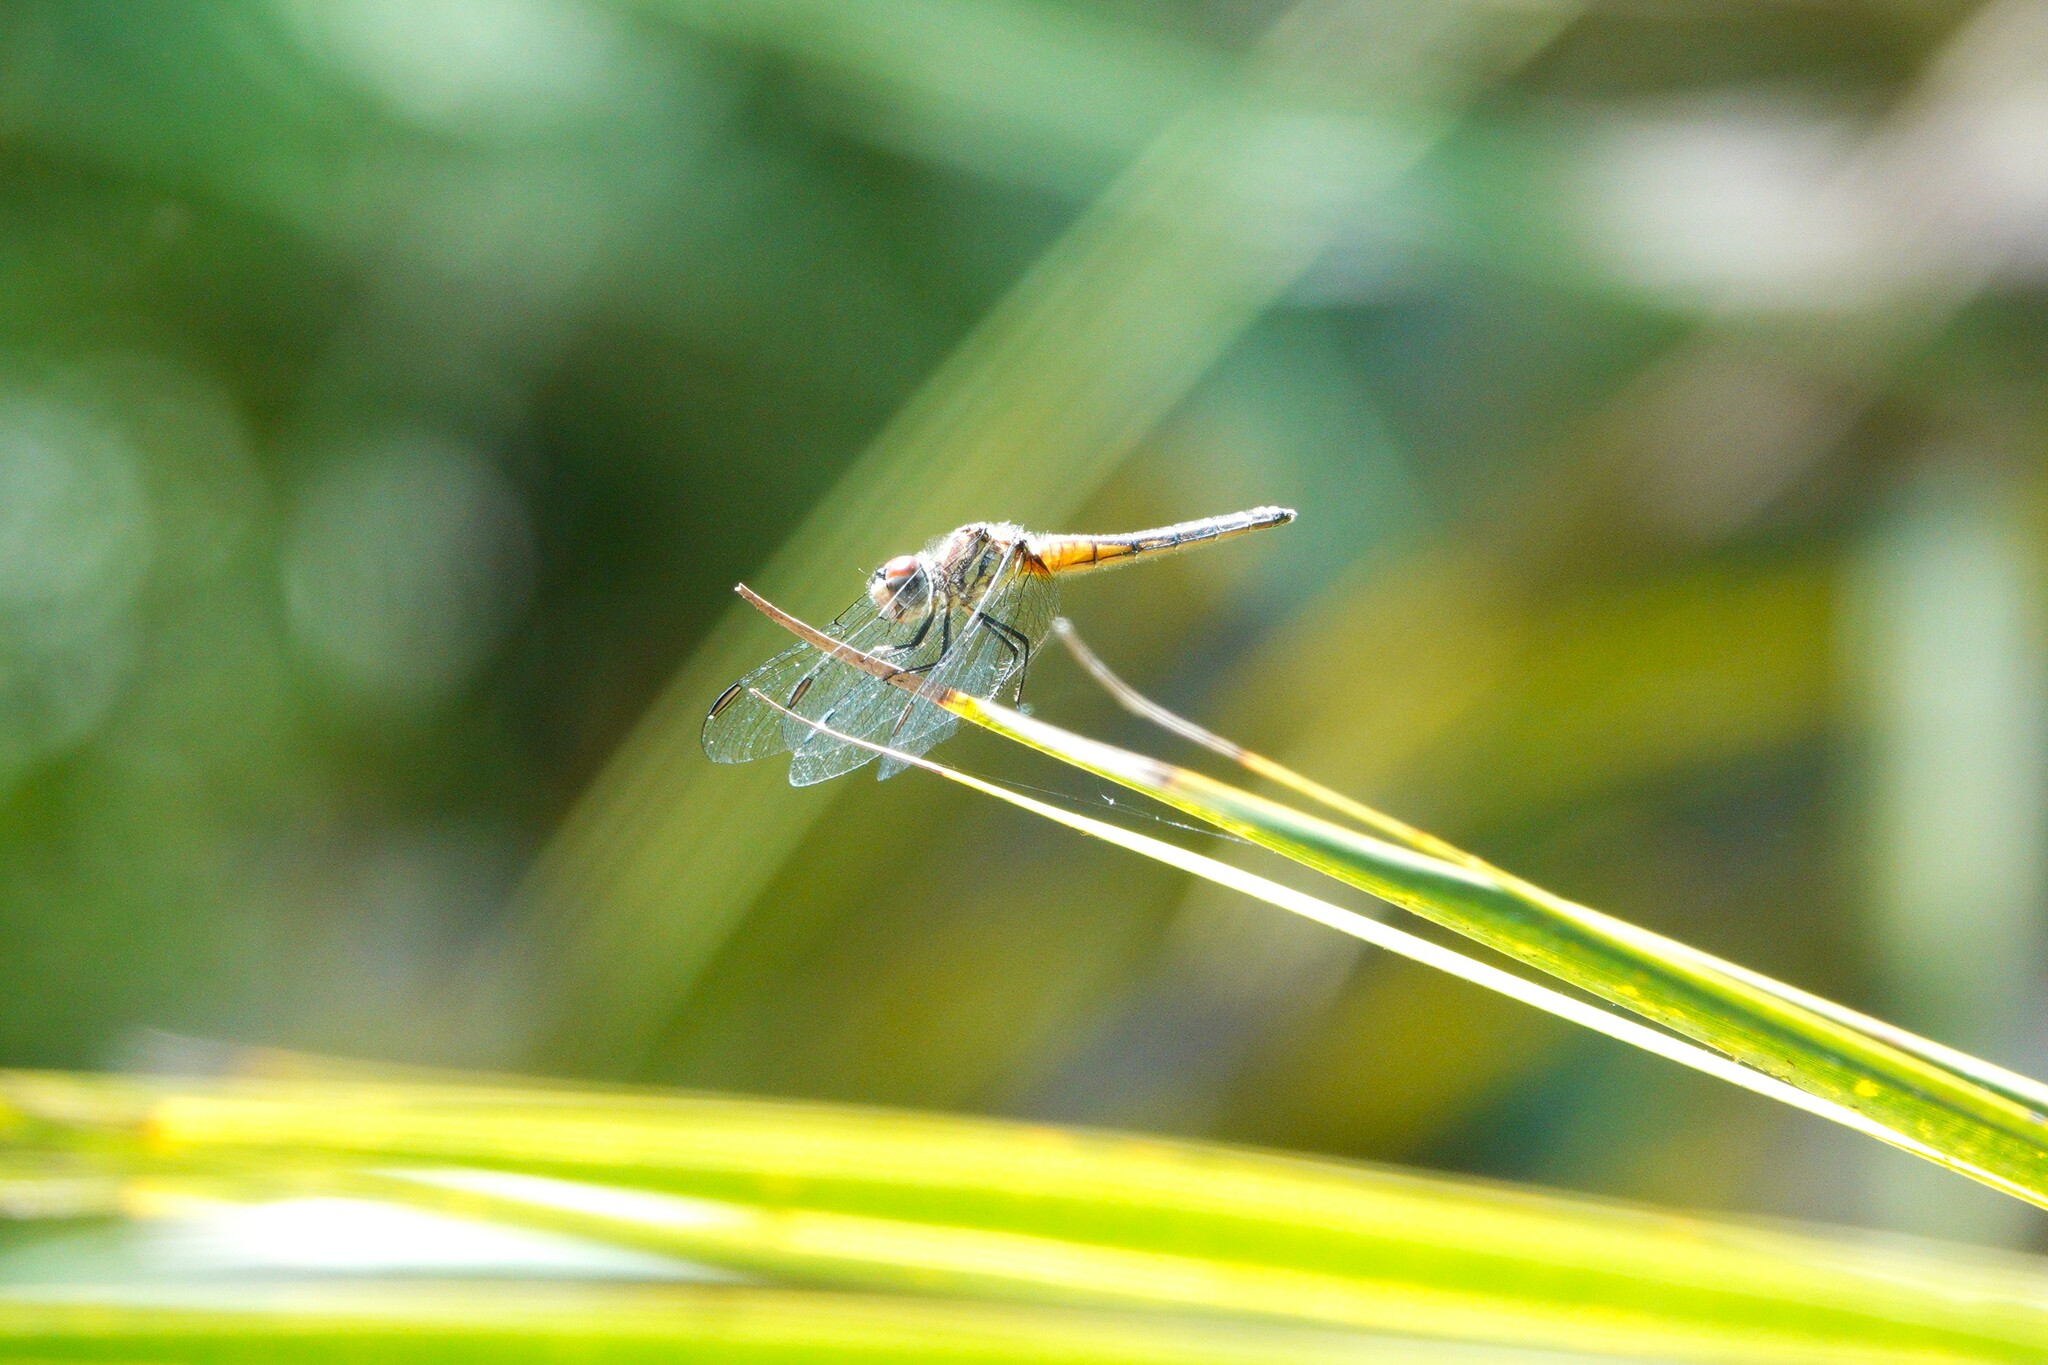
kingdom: Animalia
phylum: Arthropoda
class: Insecta
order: Odonata
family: Libellulidae
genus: Pachydiplax
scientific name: Pachydiplax longipennis
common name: Blue dasher
